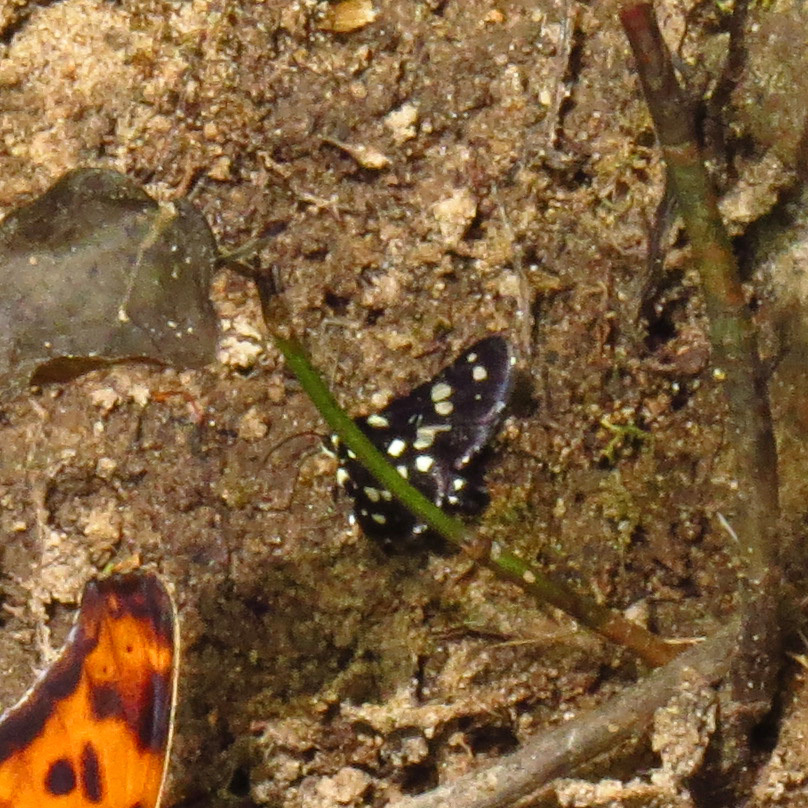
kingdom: Animalia
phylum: Arthropoda
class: Insecta
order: Lepidoptera
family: Thyrididae
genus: Pseudothyris
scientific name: Pseudothyris sepulchralis
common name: Mournful thyris moth
